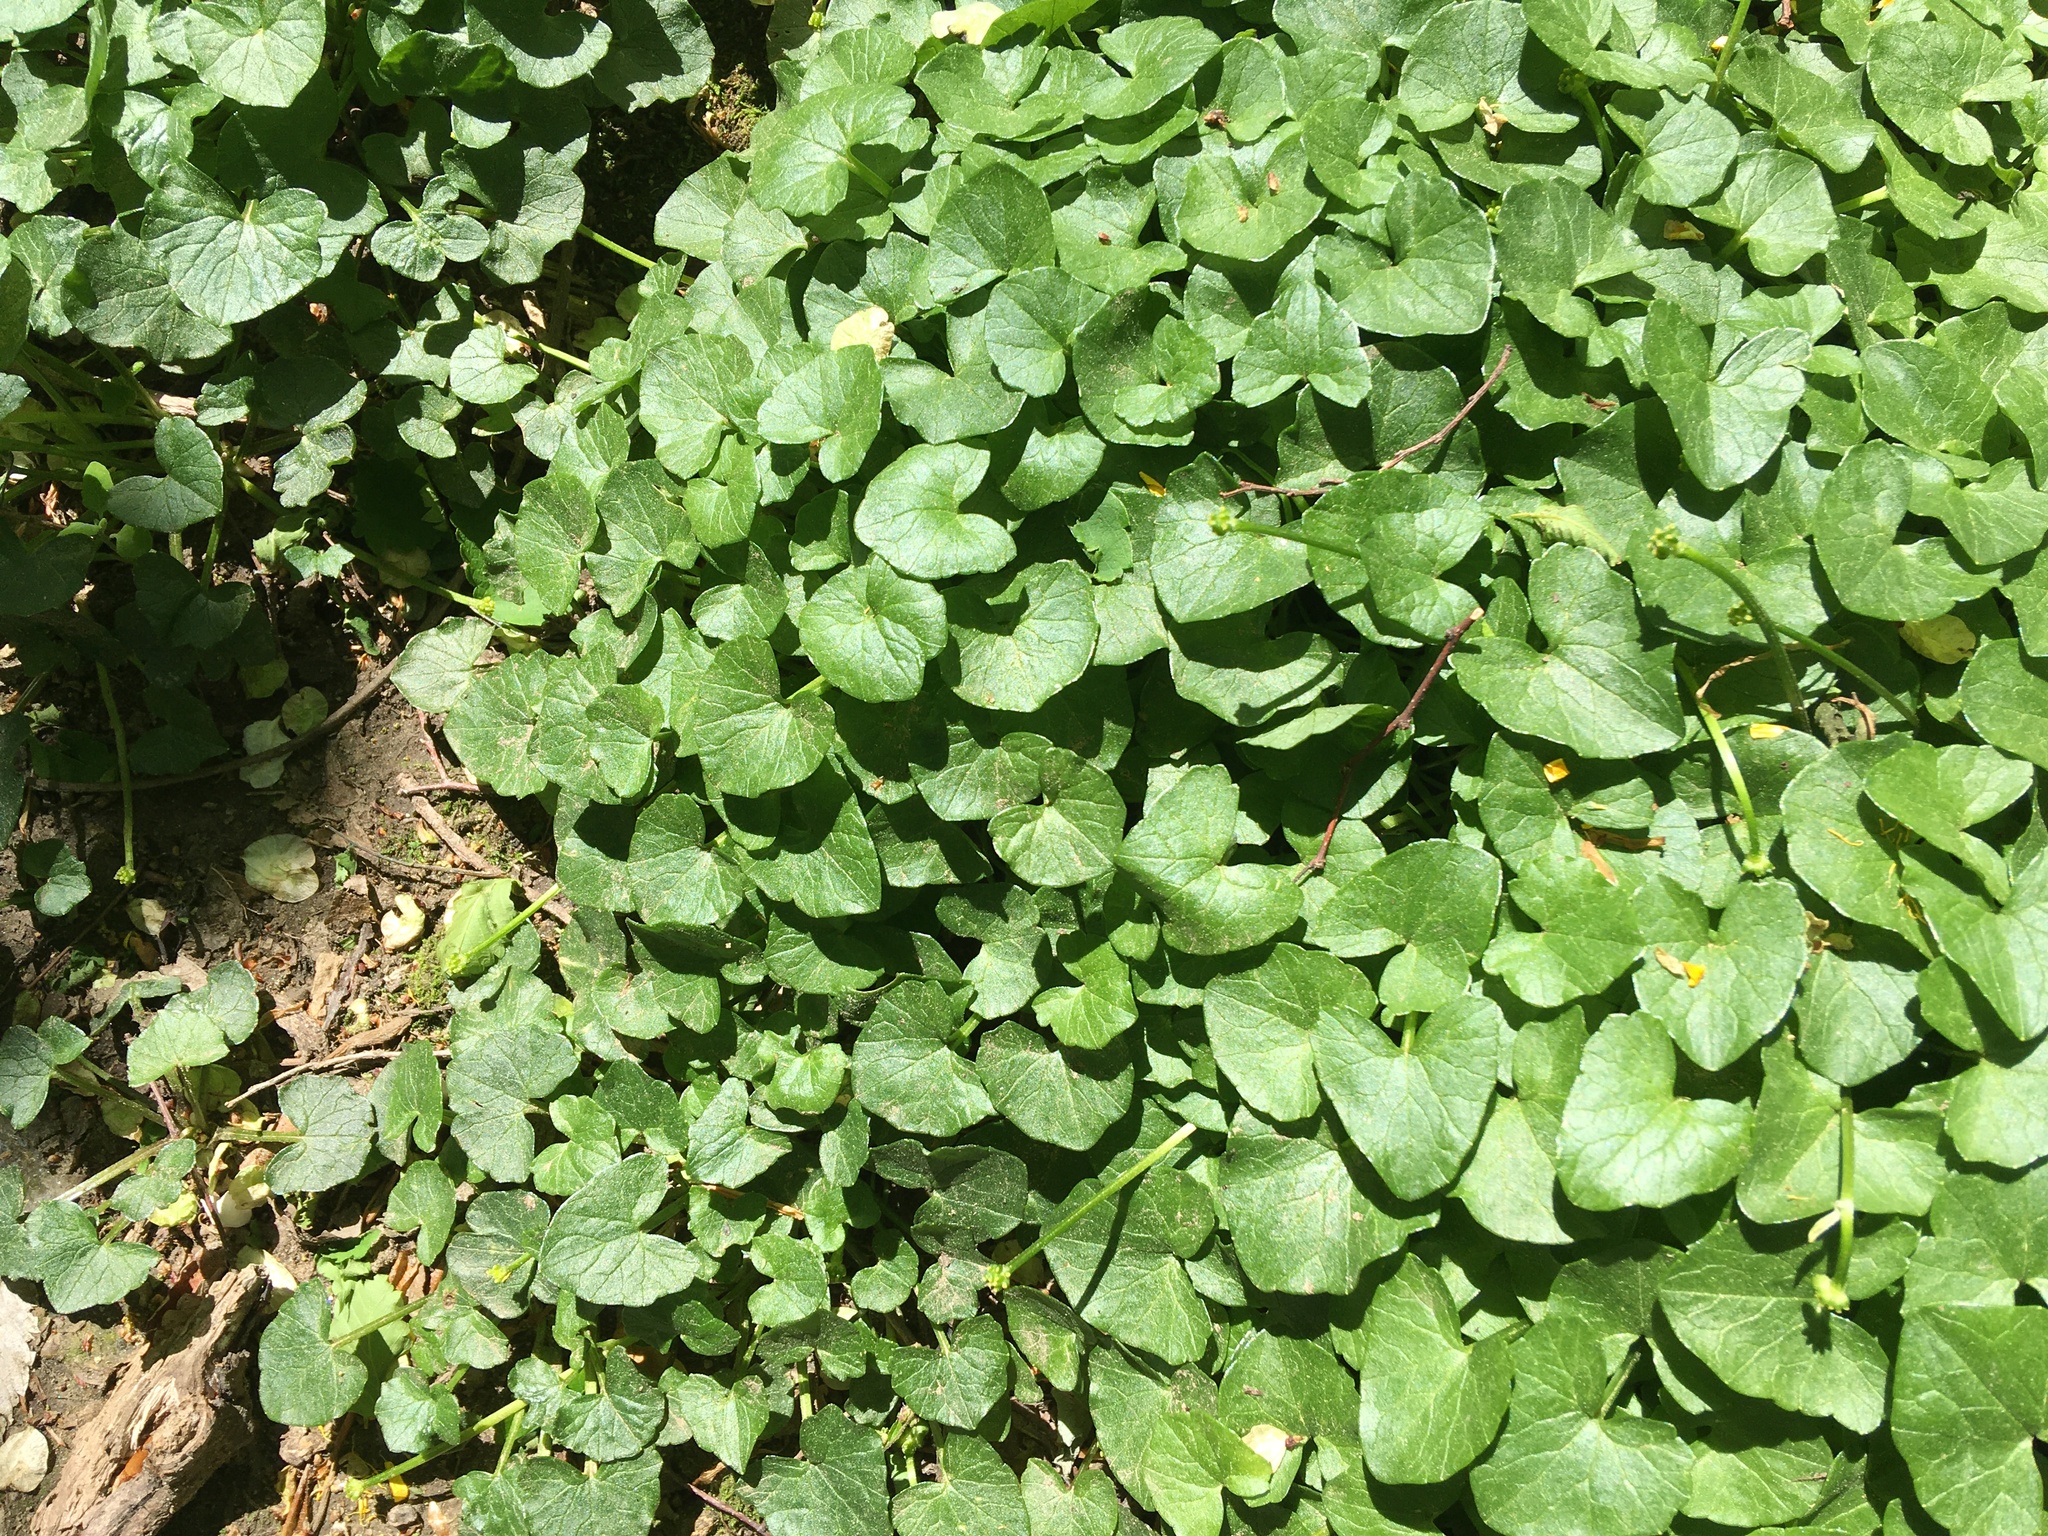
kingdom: Plantae
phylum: Tracheophyta
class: Magnoliopsida
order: Ranunculales
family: Ranunculaceae
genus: Ficaria
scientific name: Ficaria verna
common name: Lesser celandine
